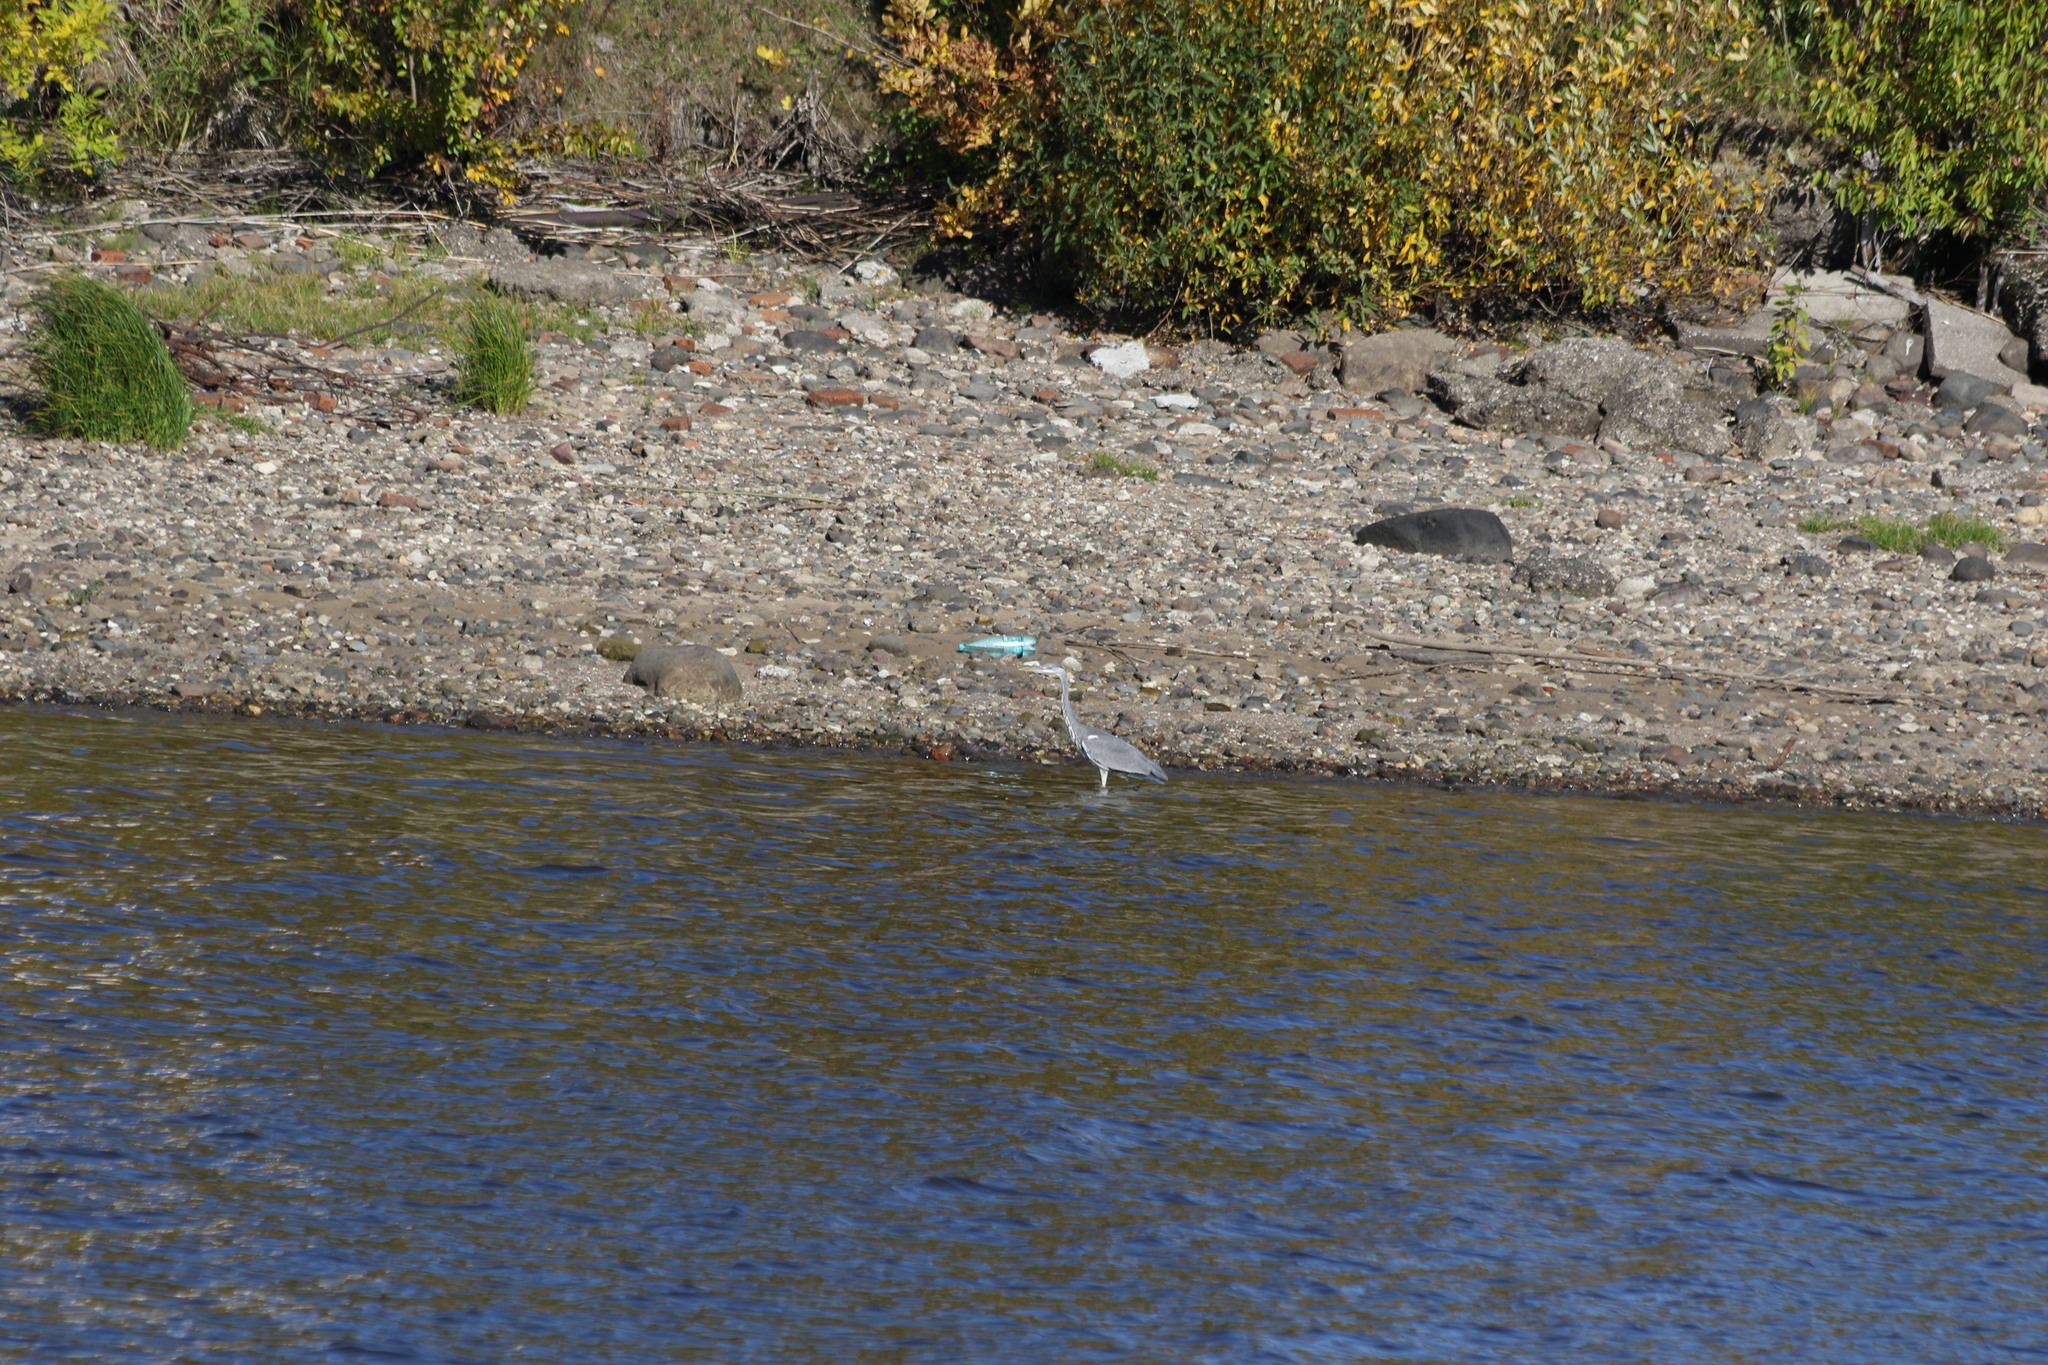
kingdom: Animalia
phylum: Chordata
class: Aves
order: Pelecaniformes
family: Ardeidae
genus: Ardea
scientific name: Ardea cinerea
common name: Grey heron
